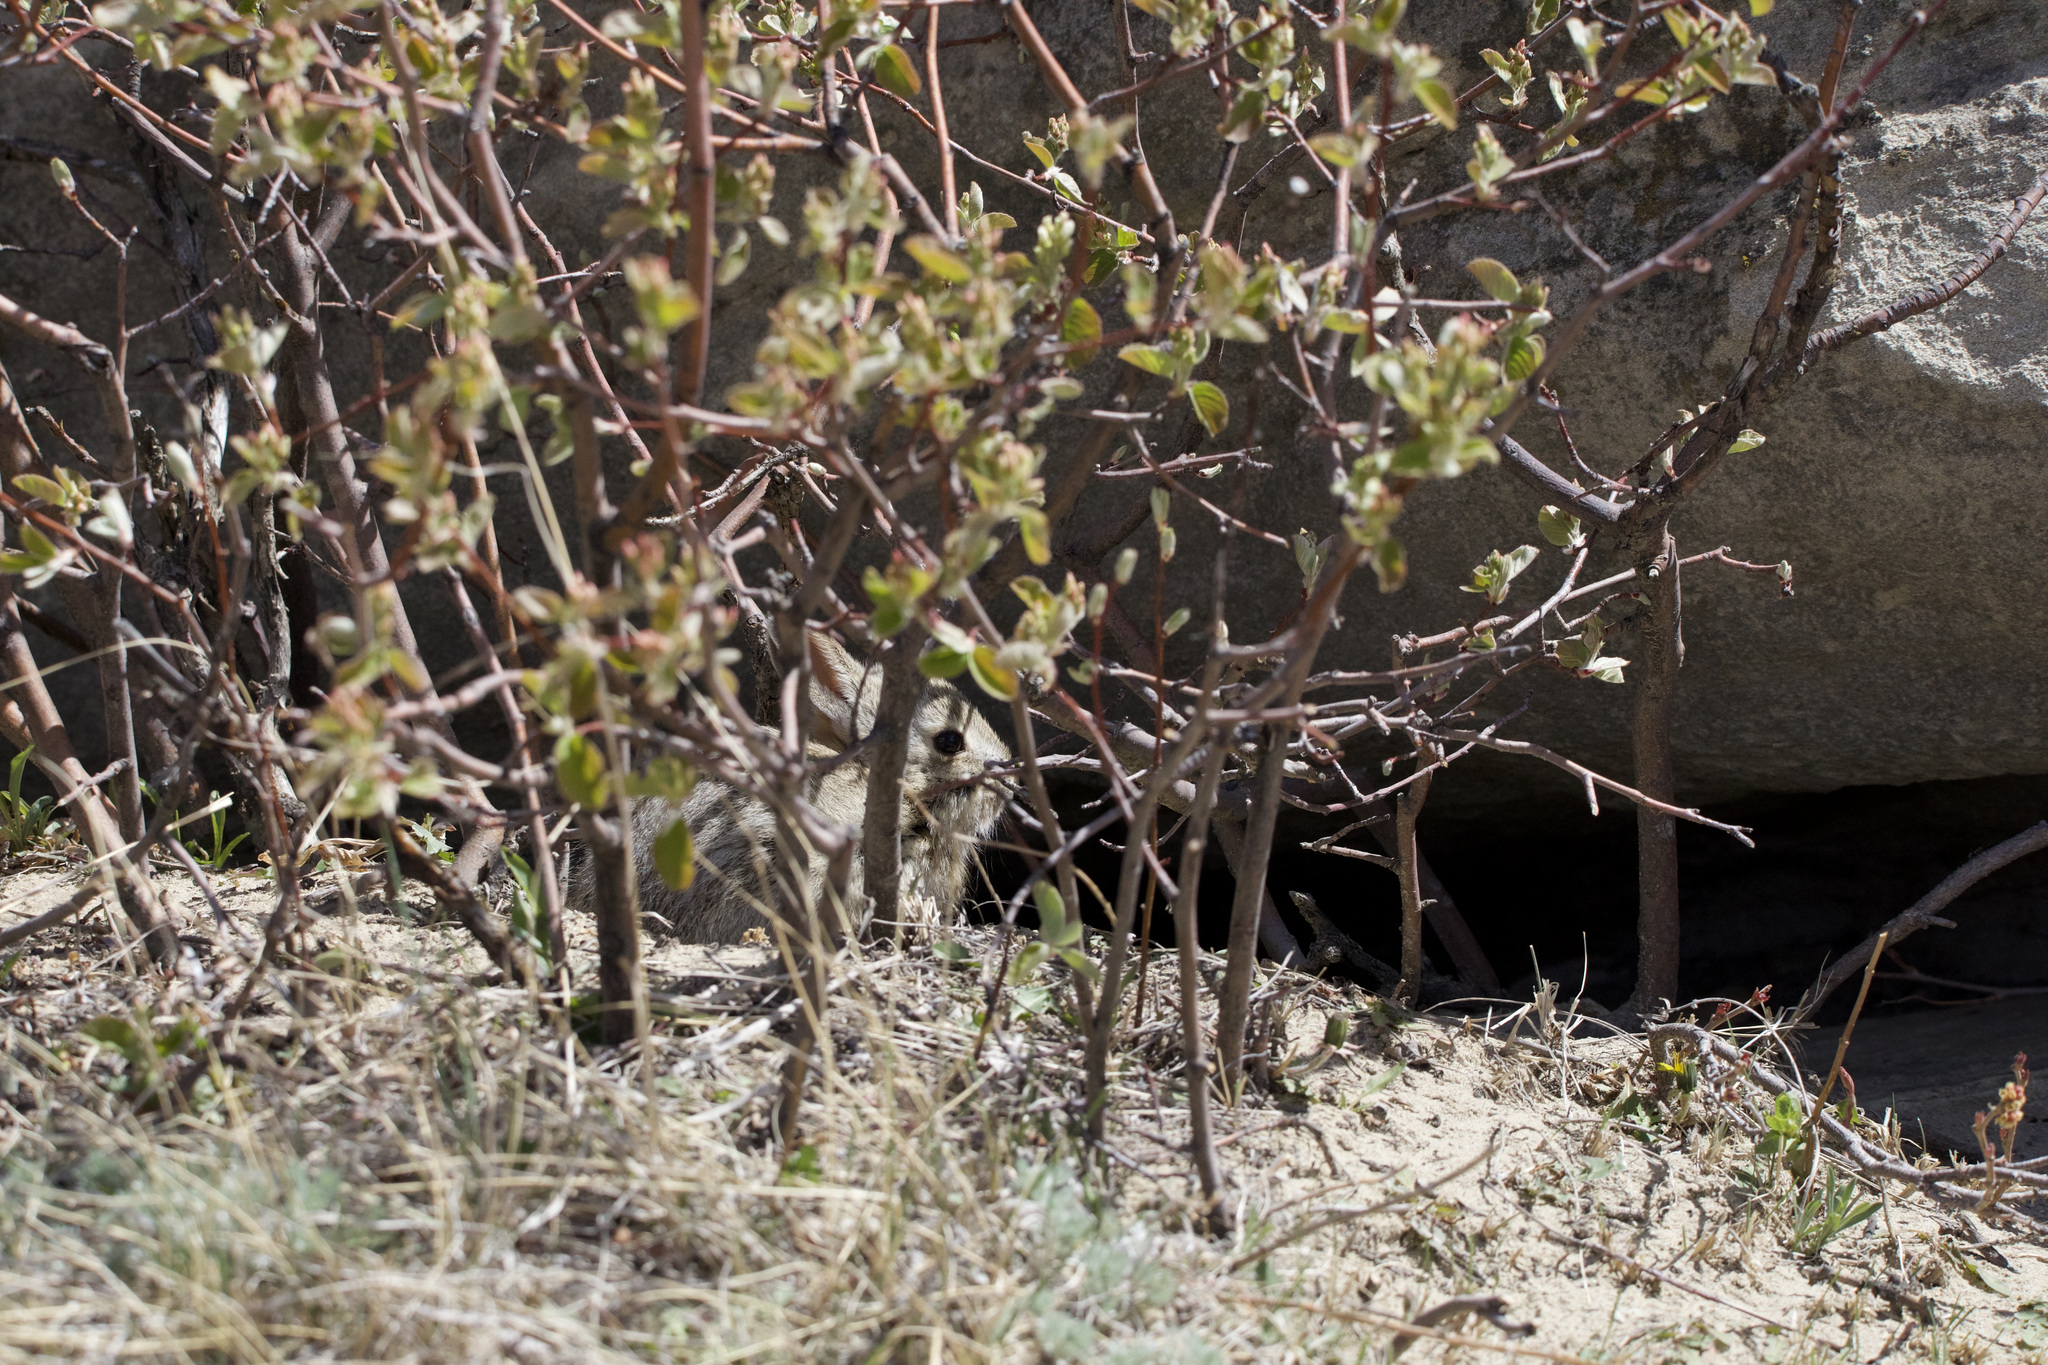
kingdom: Animalia
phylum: Chordata
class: Mammalia
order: Lagomorpha
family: Leporidae
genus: Sylvilagus
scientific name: Sylvilagus nuttallii
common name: Mountain cottontail
